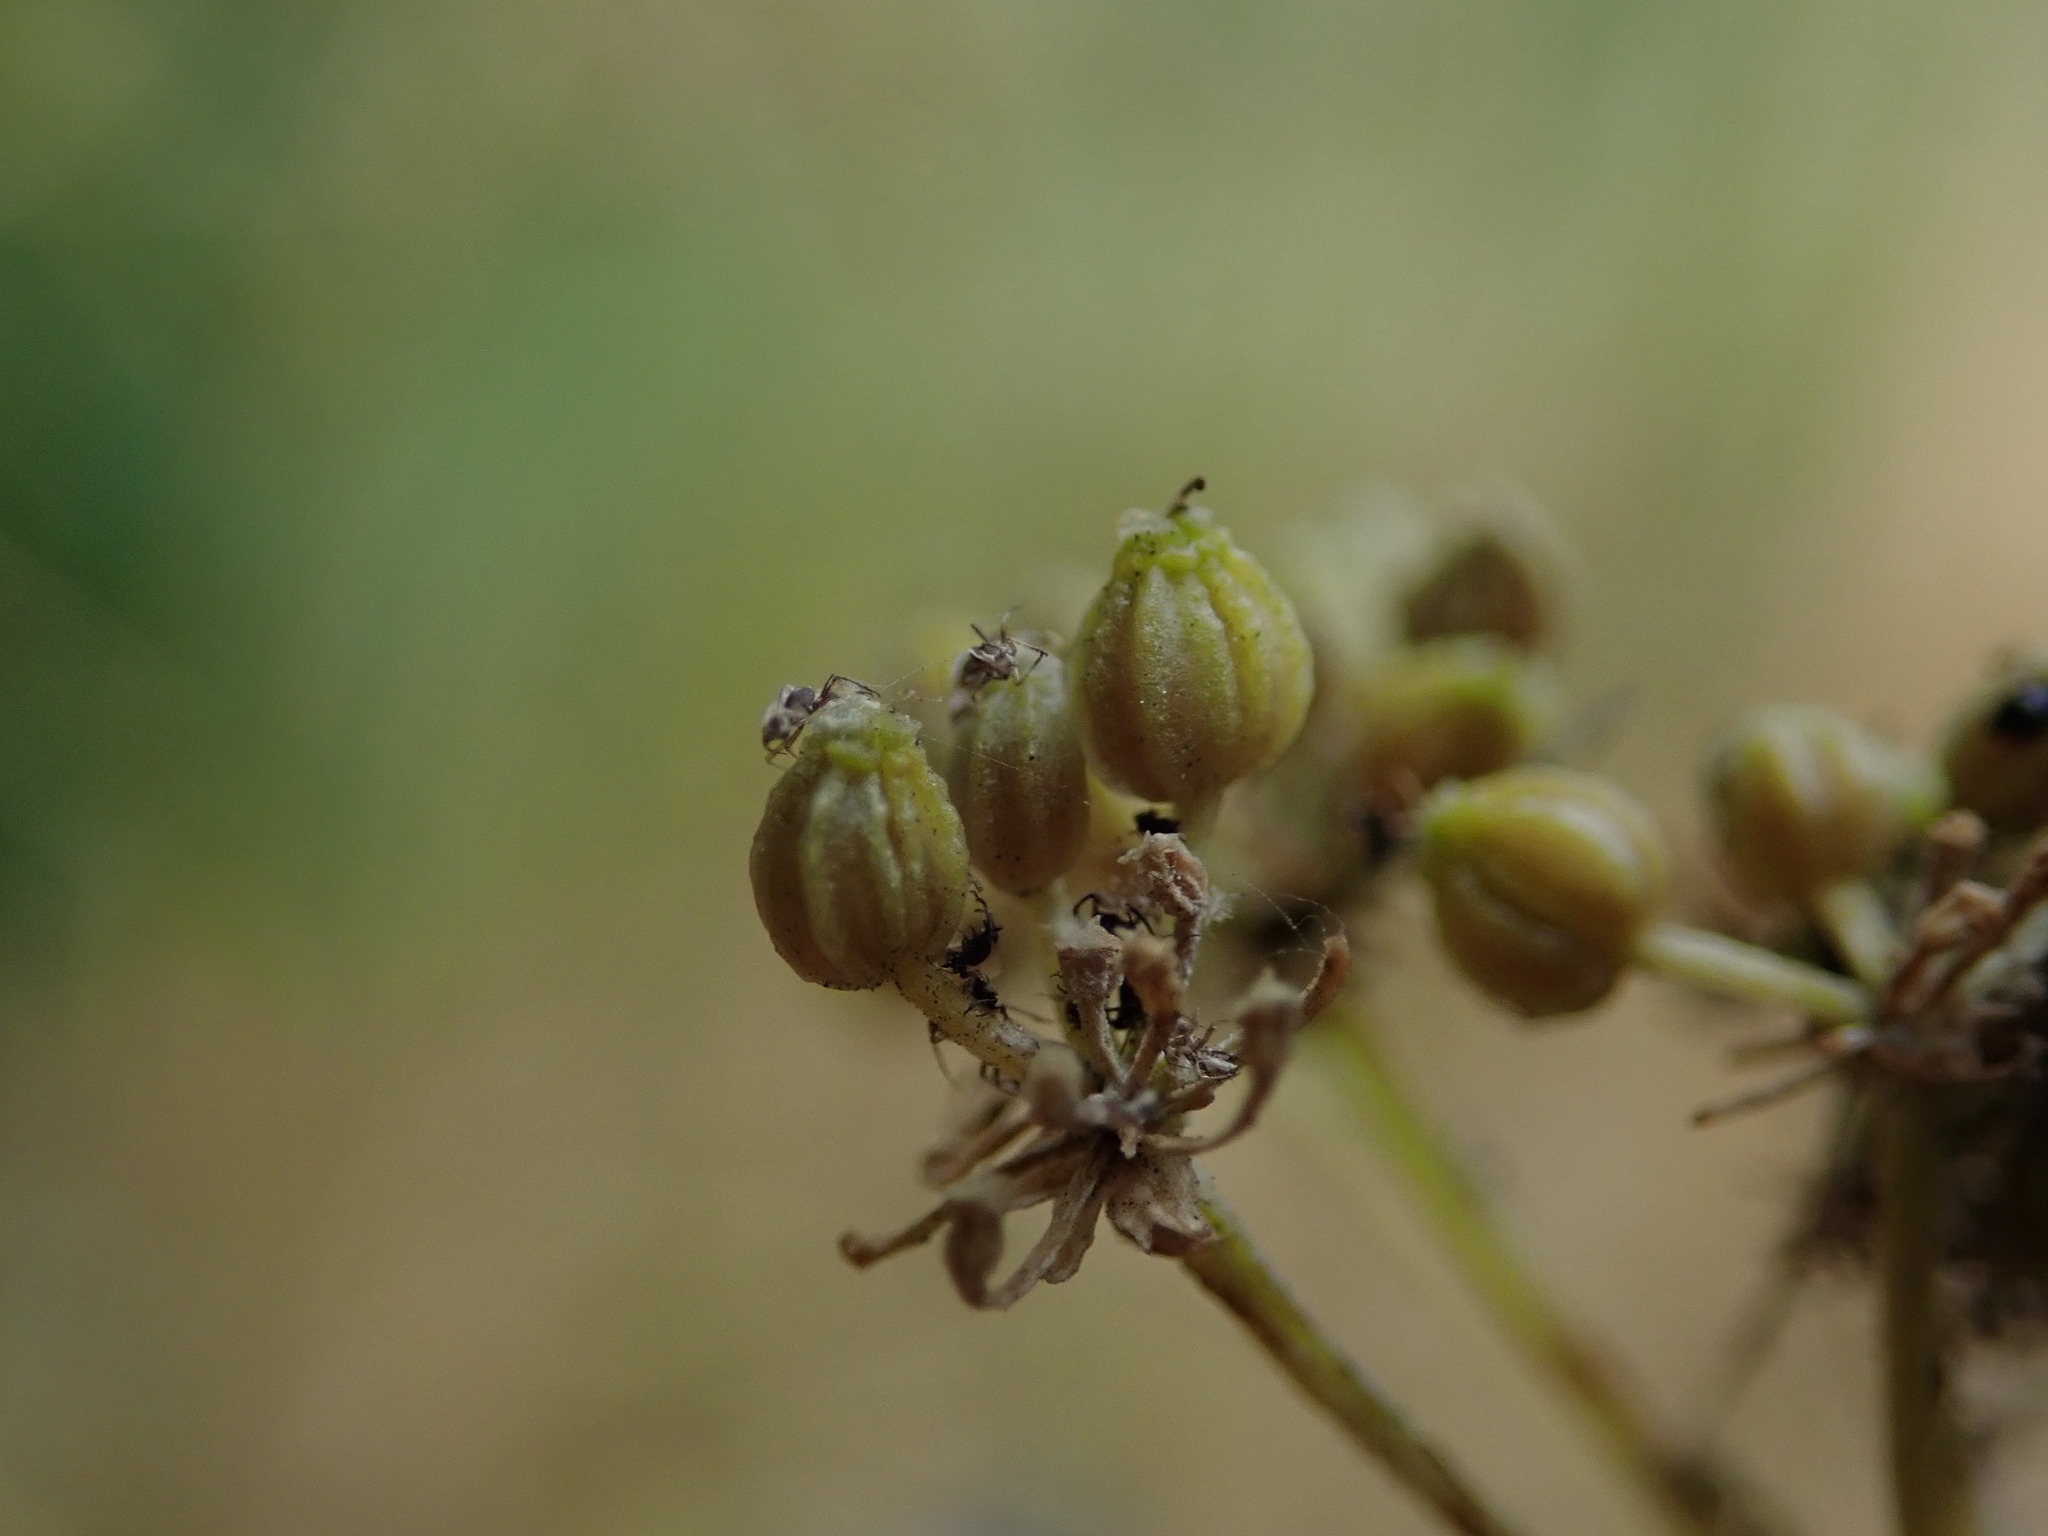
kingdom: Plantae
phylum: Tracheophyta
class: Magnoliopsida
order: Apiales
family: Apiaceae
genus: Conium
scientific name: Conium maculatum
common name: Hemlock
